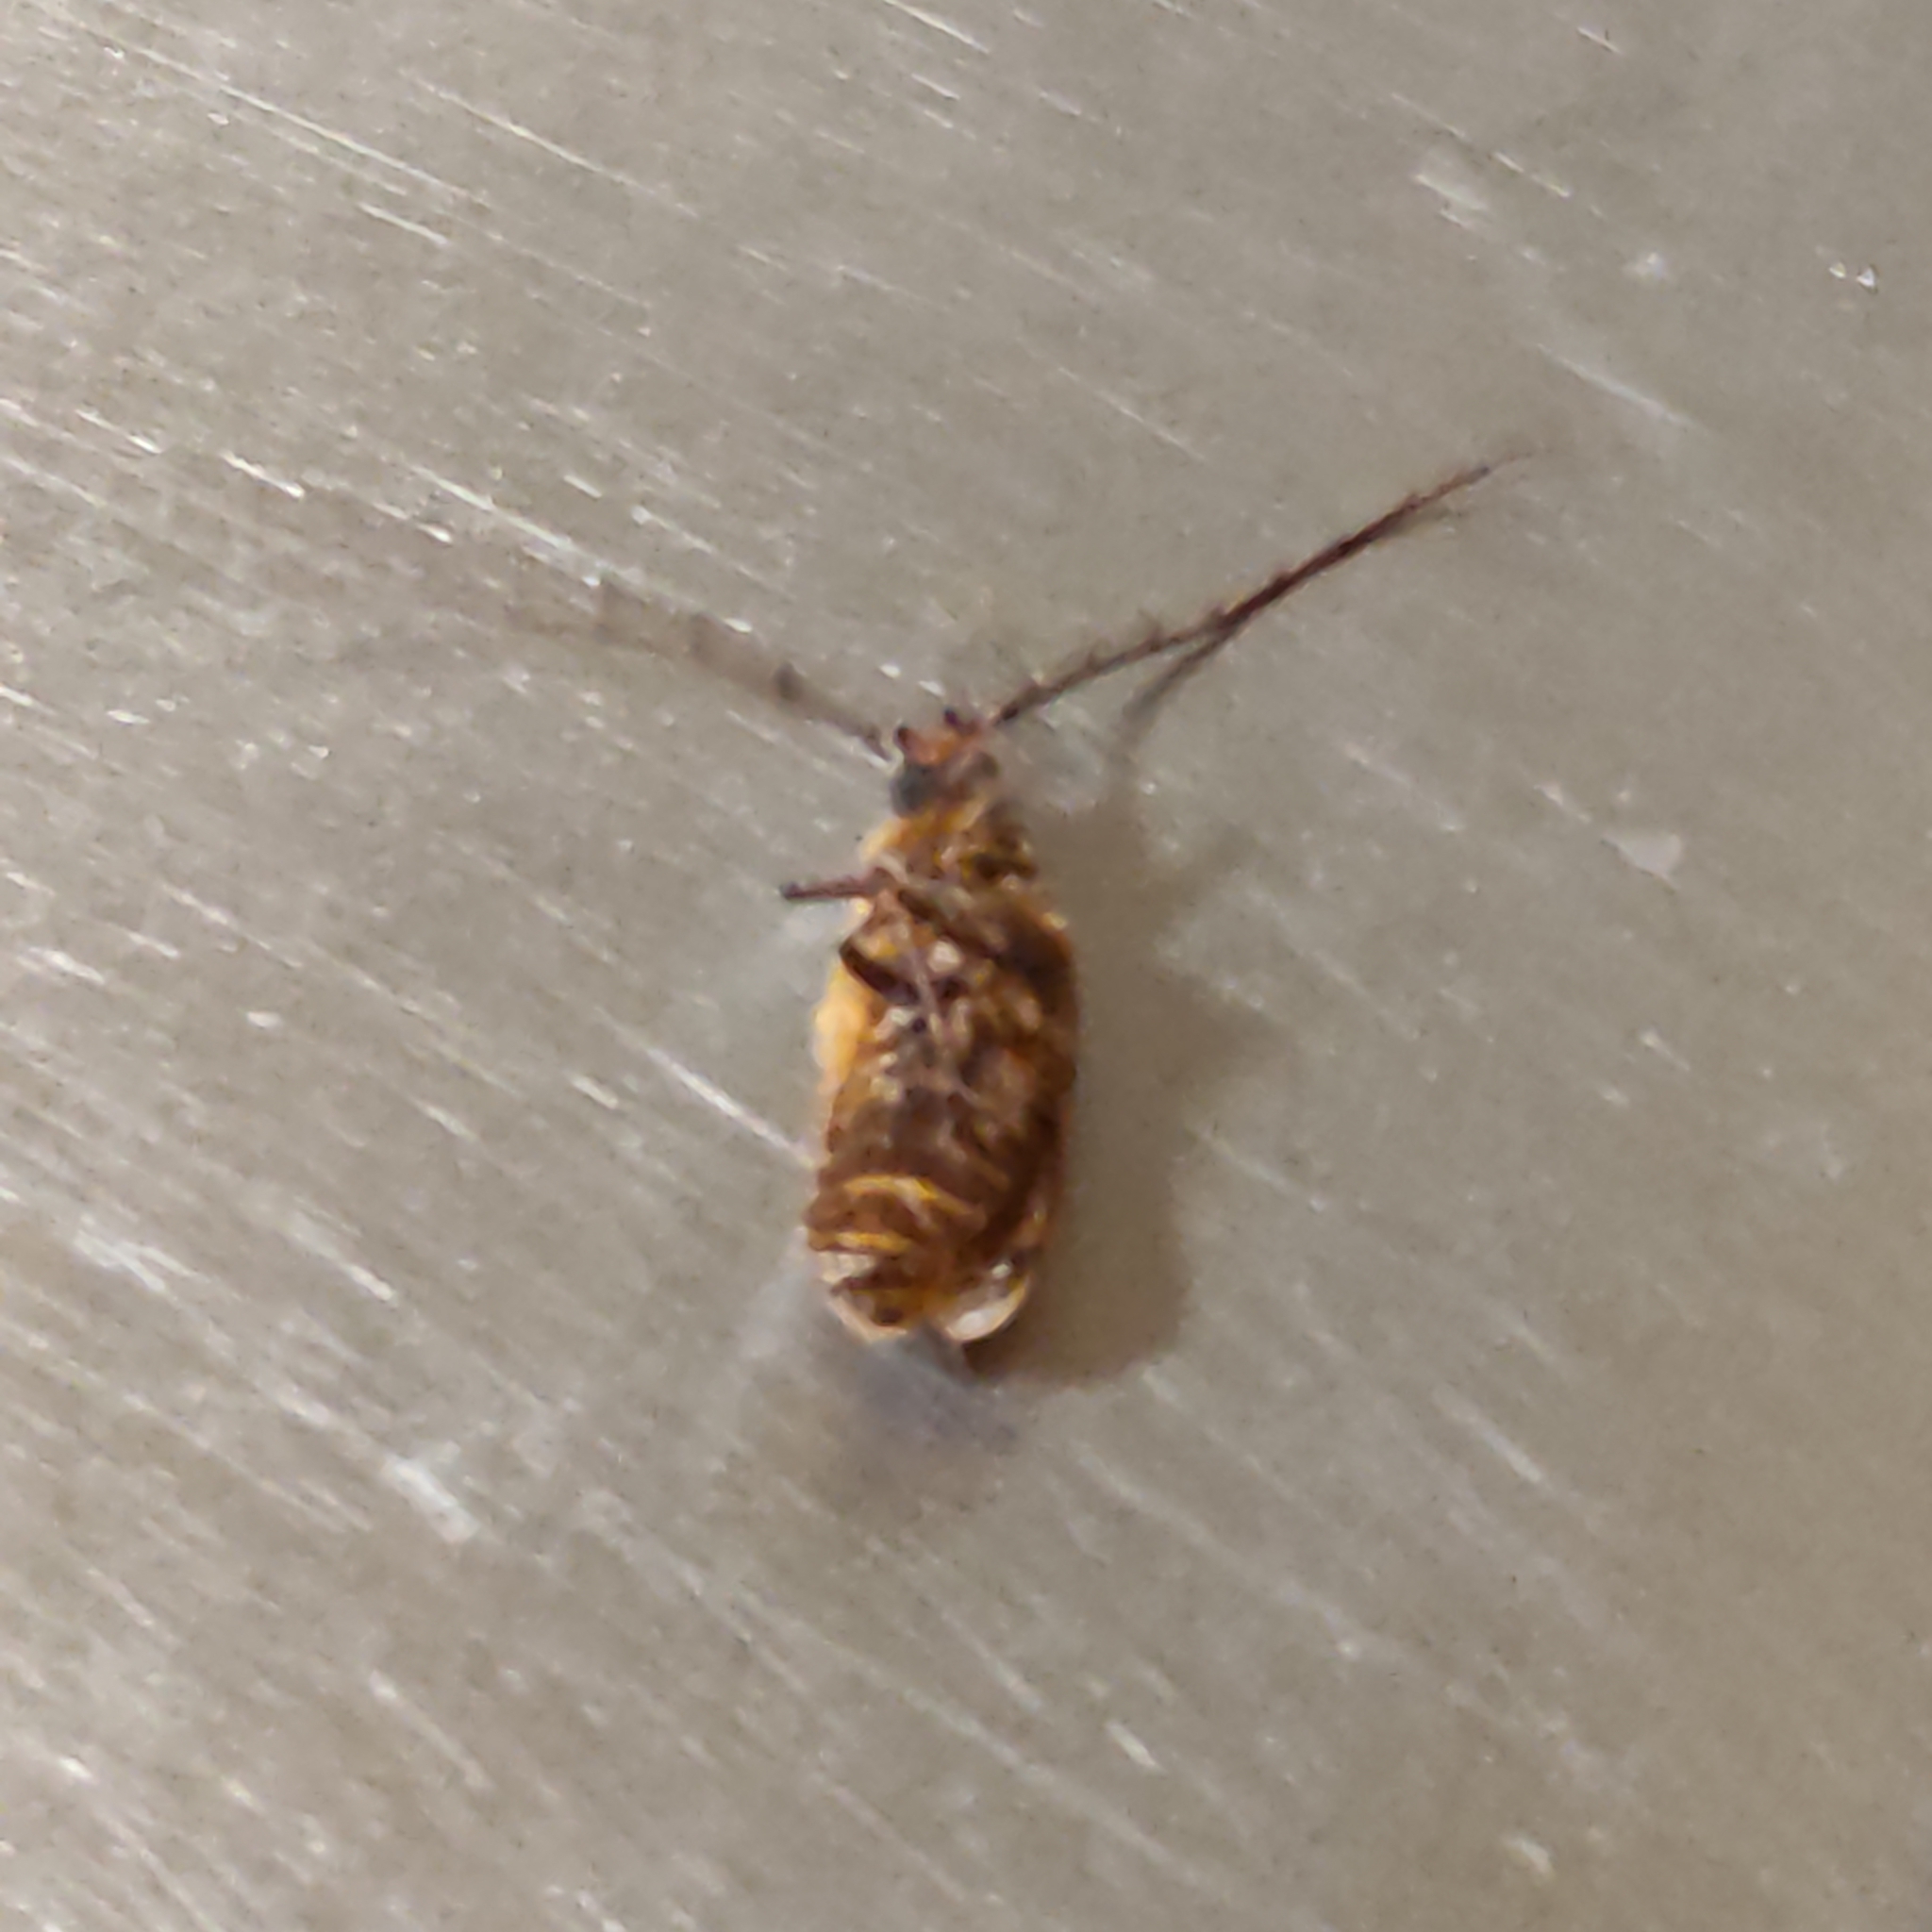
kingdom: Animalia
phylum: Arthropoda
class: Insecta
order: Coleoptera
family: Cerambycidae
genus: Prionoplus
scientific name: Prionoplus reticularis
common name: Huhu beetle
